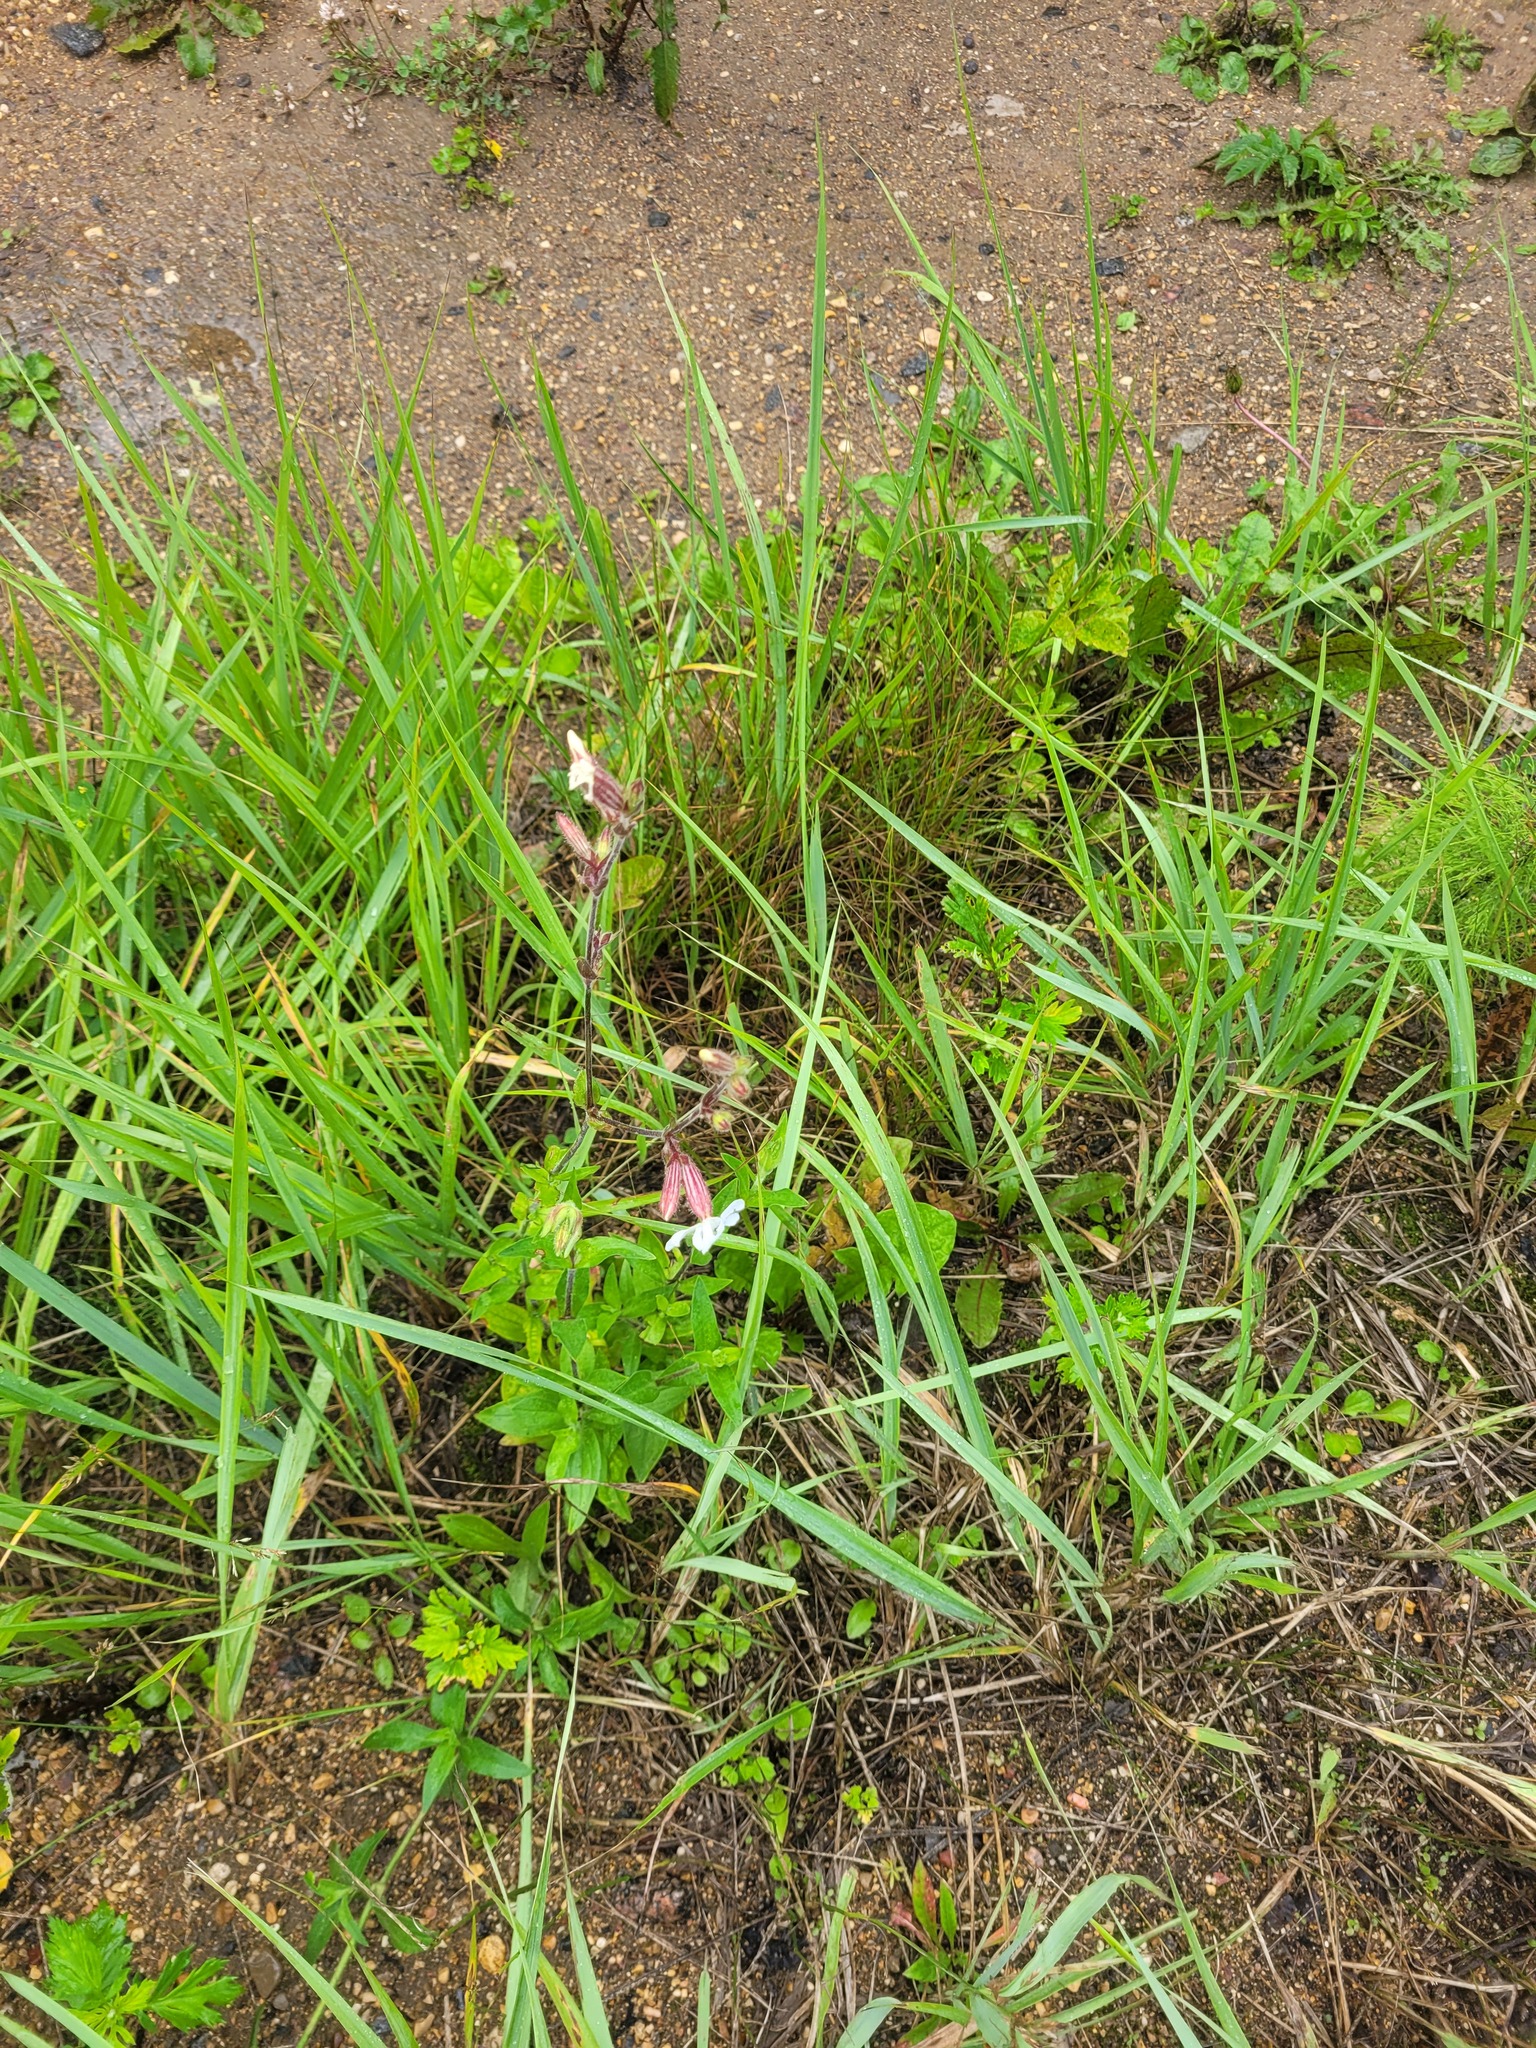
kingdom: Plantae
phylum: Tracheophyta
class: Magnoliopsida
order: Caryophyllales
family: Caryophyllaceae
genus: Silene
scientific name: Silene latifolia
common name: White campion
